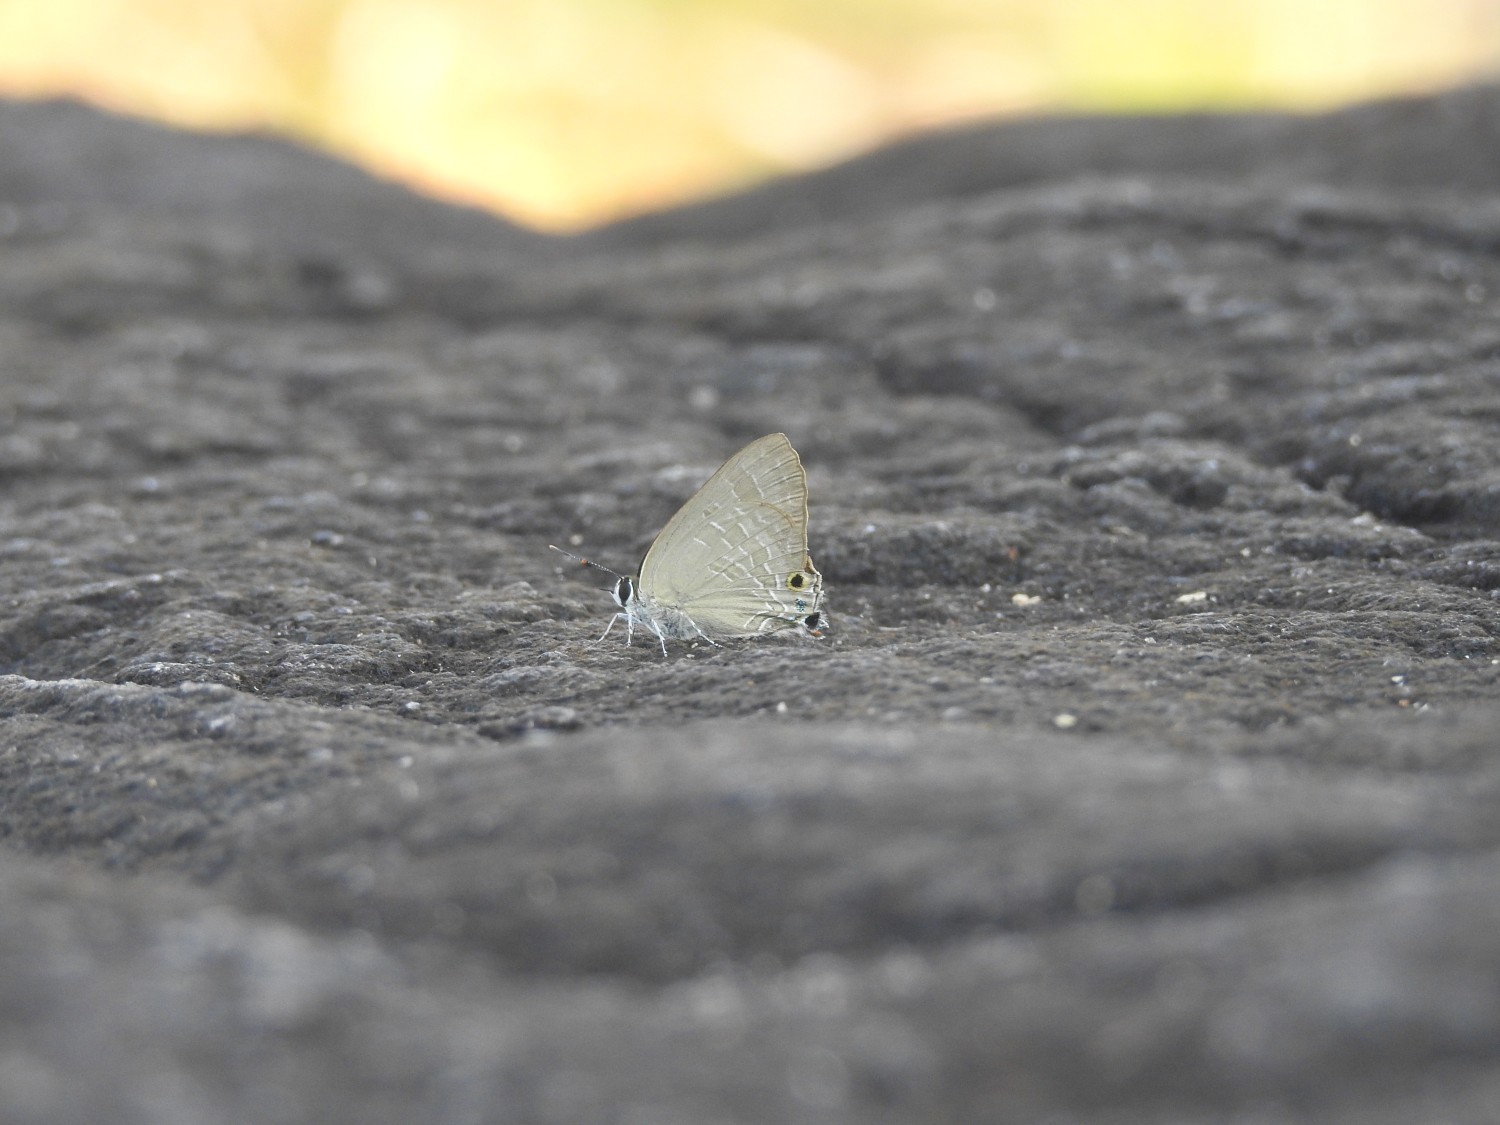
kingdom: Animalia
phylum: Arthropoda
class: Insecta
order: Lepidoptera
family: Lycaenidae
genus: Deudorix
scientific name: Deudorix epijarbas
